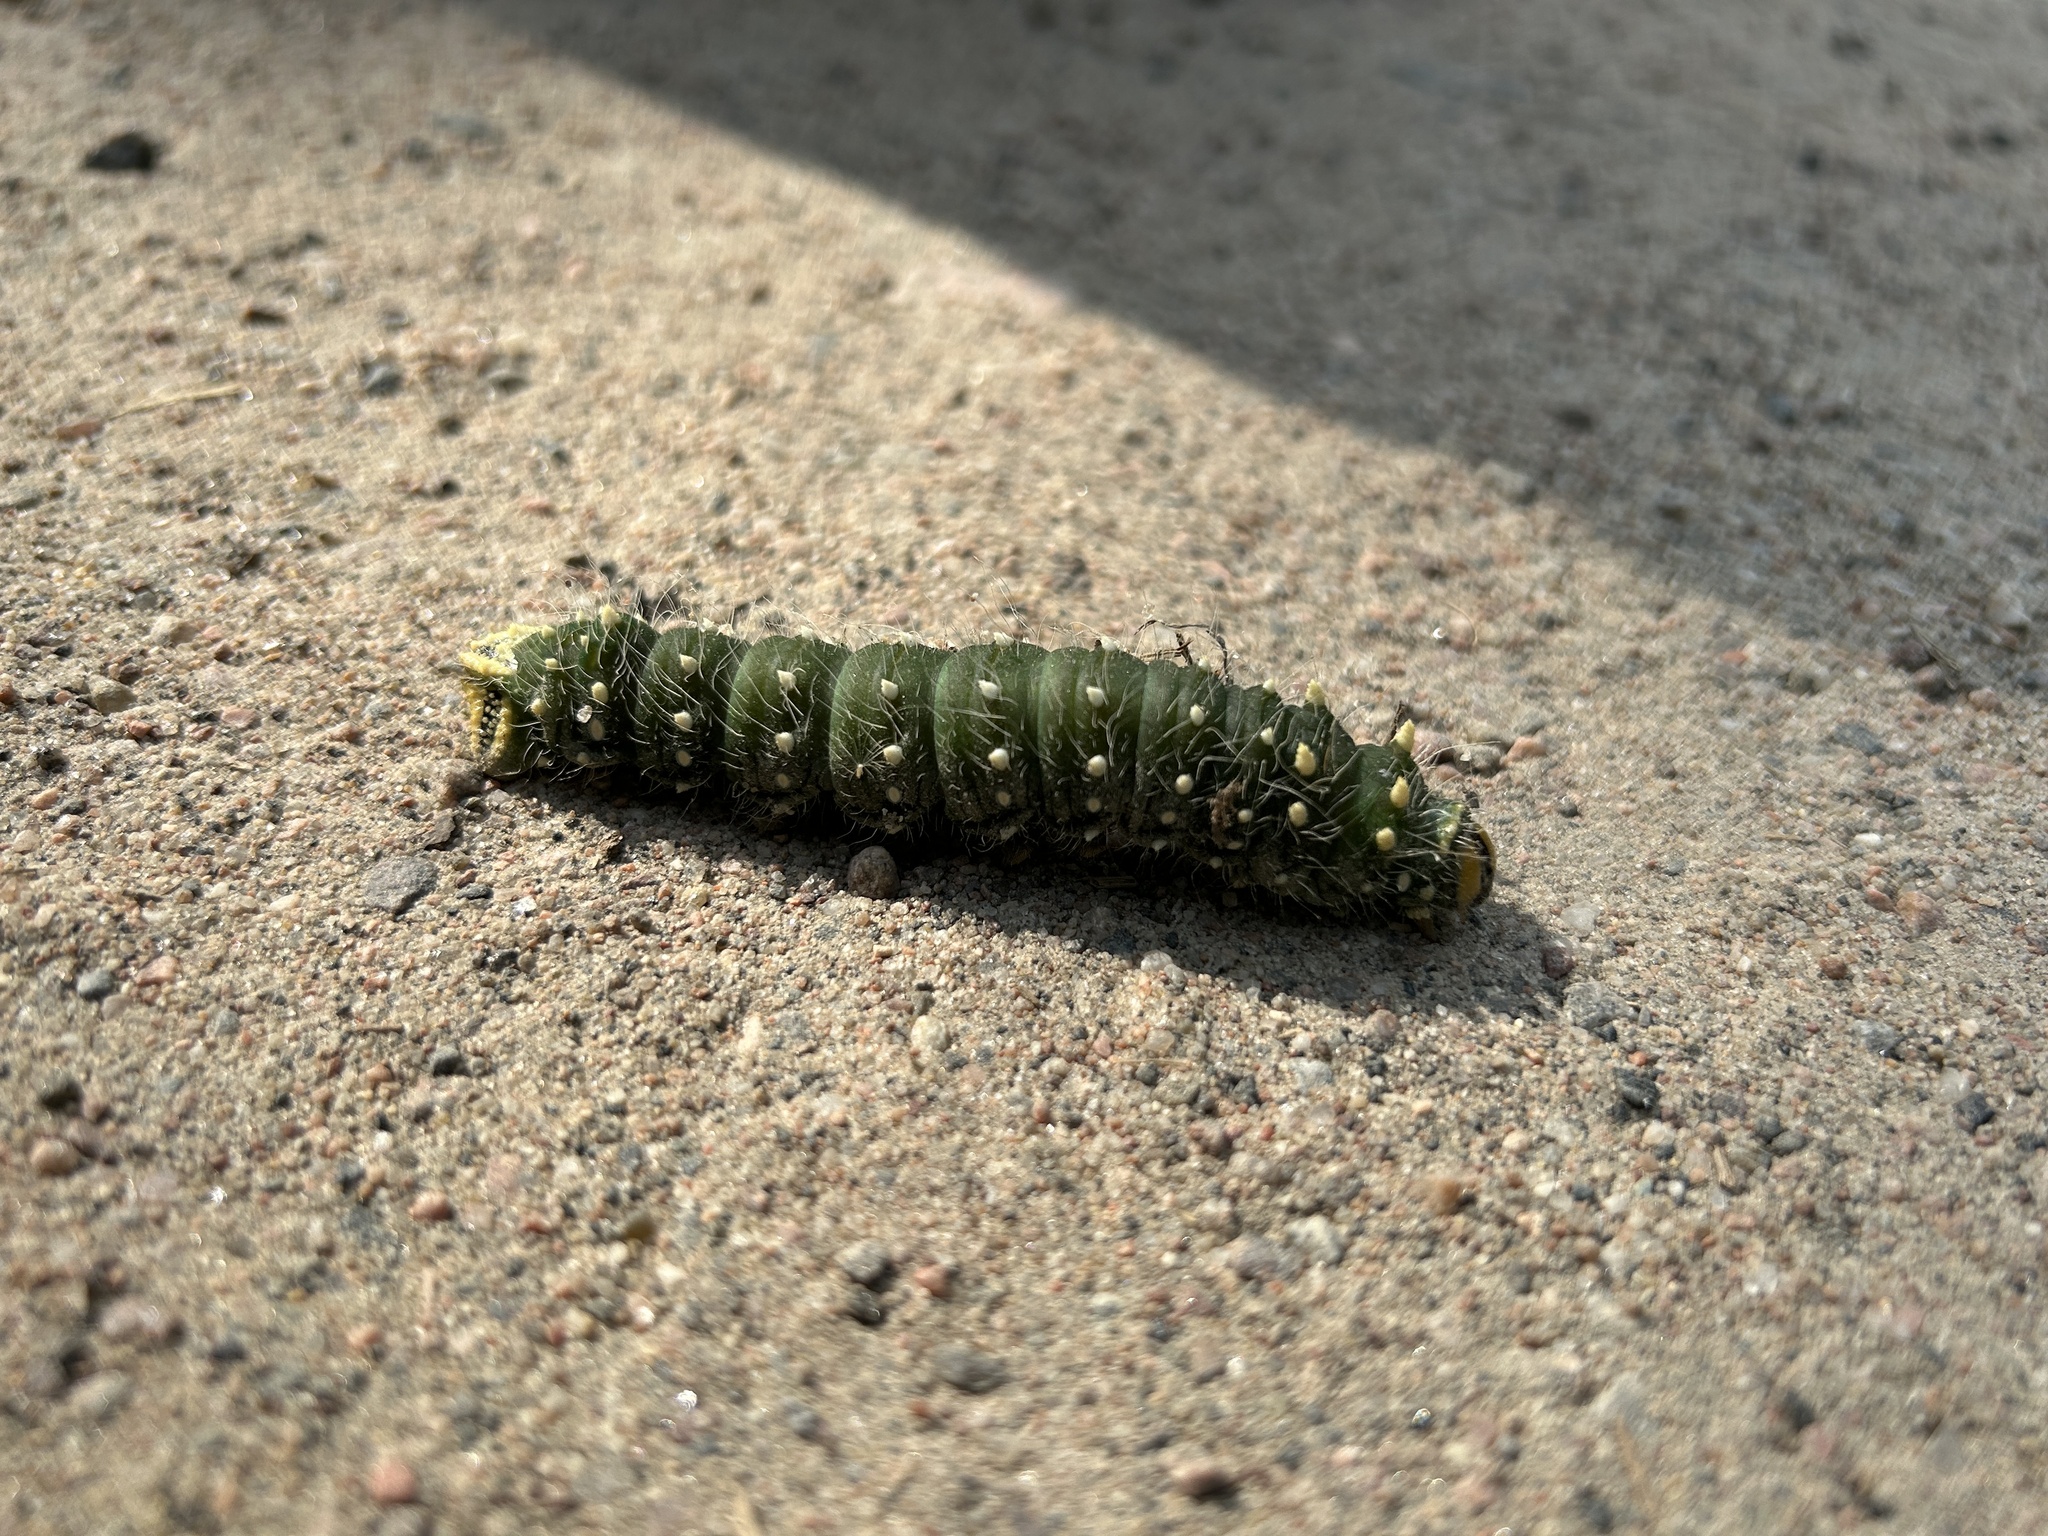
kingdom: Animalia
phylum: Arthropoda
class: Insecta
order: Lepidoptera
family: Saturniidae
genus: Eacles
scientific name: Eacles
